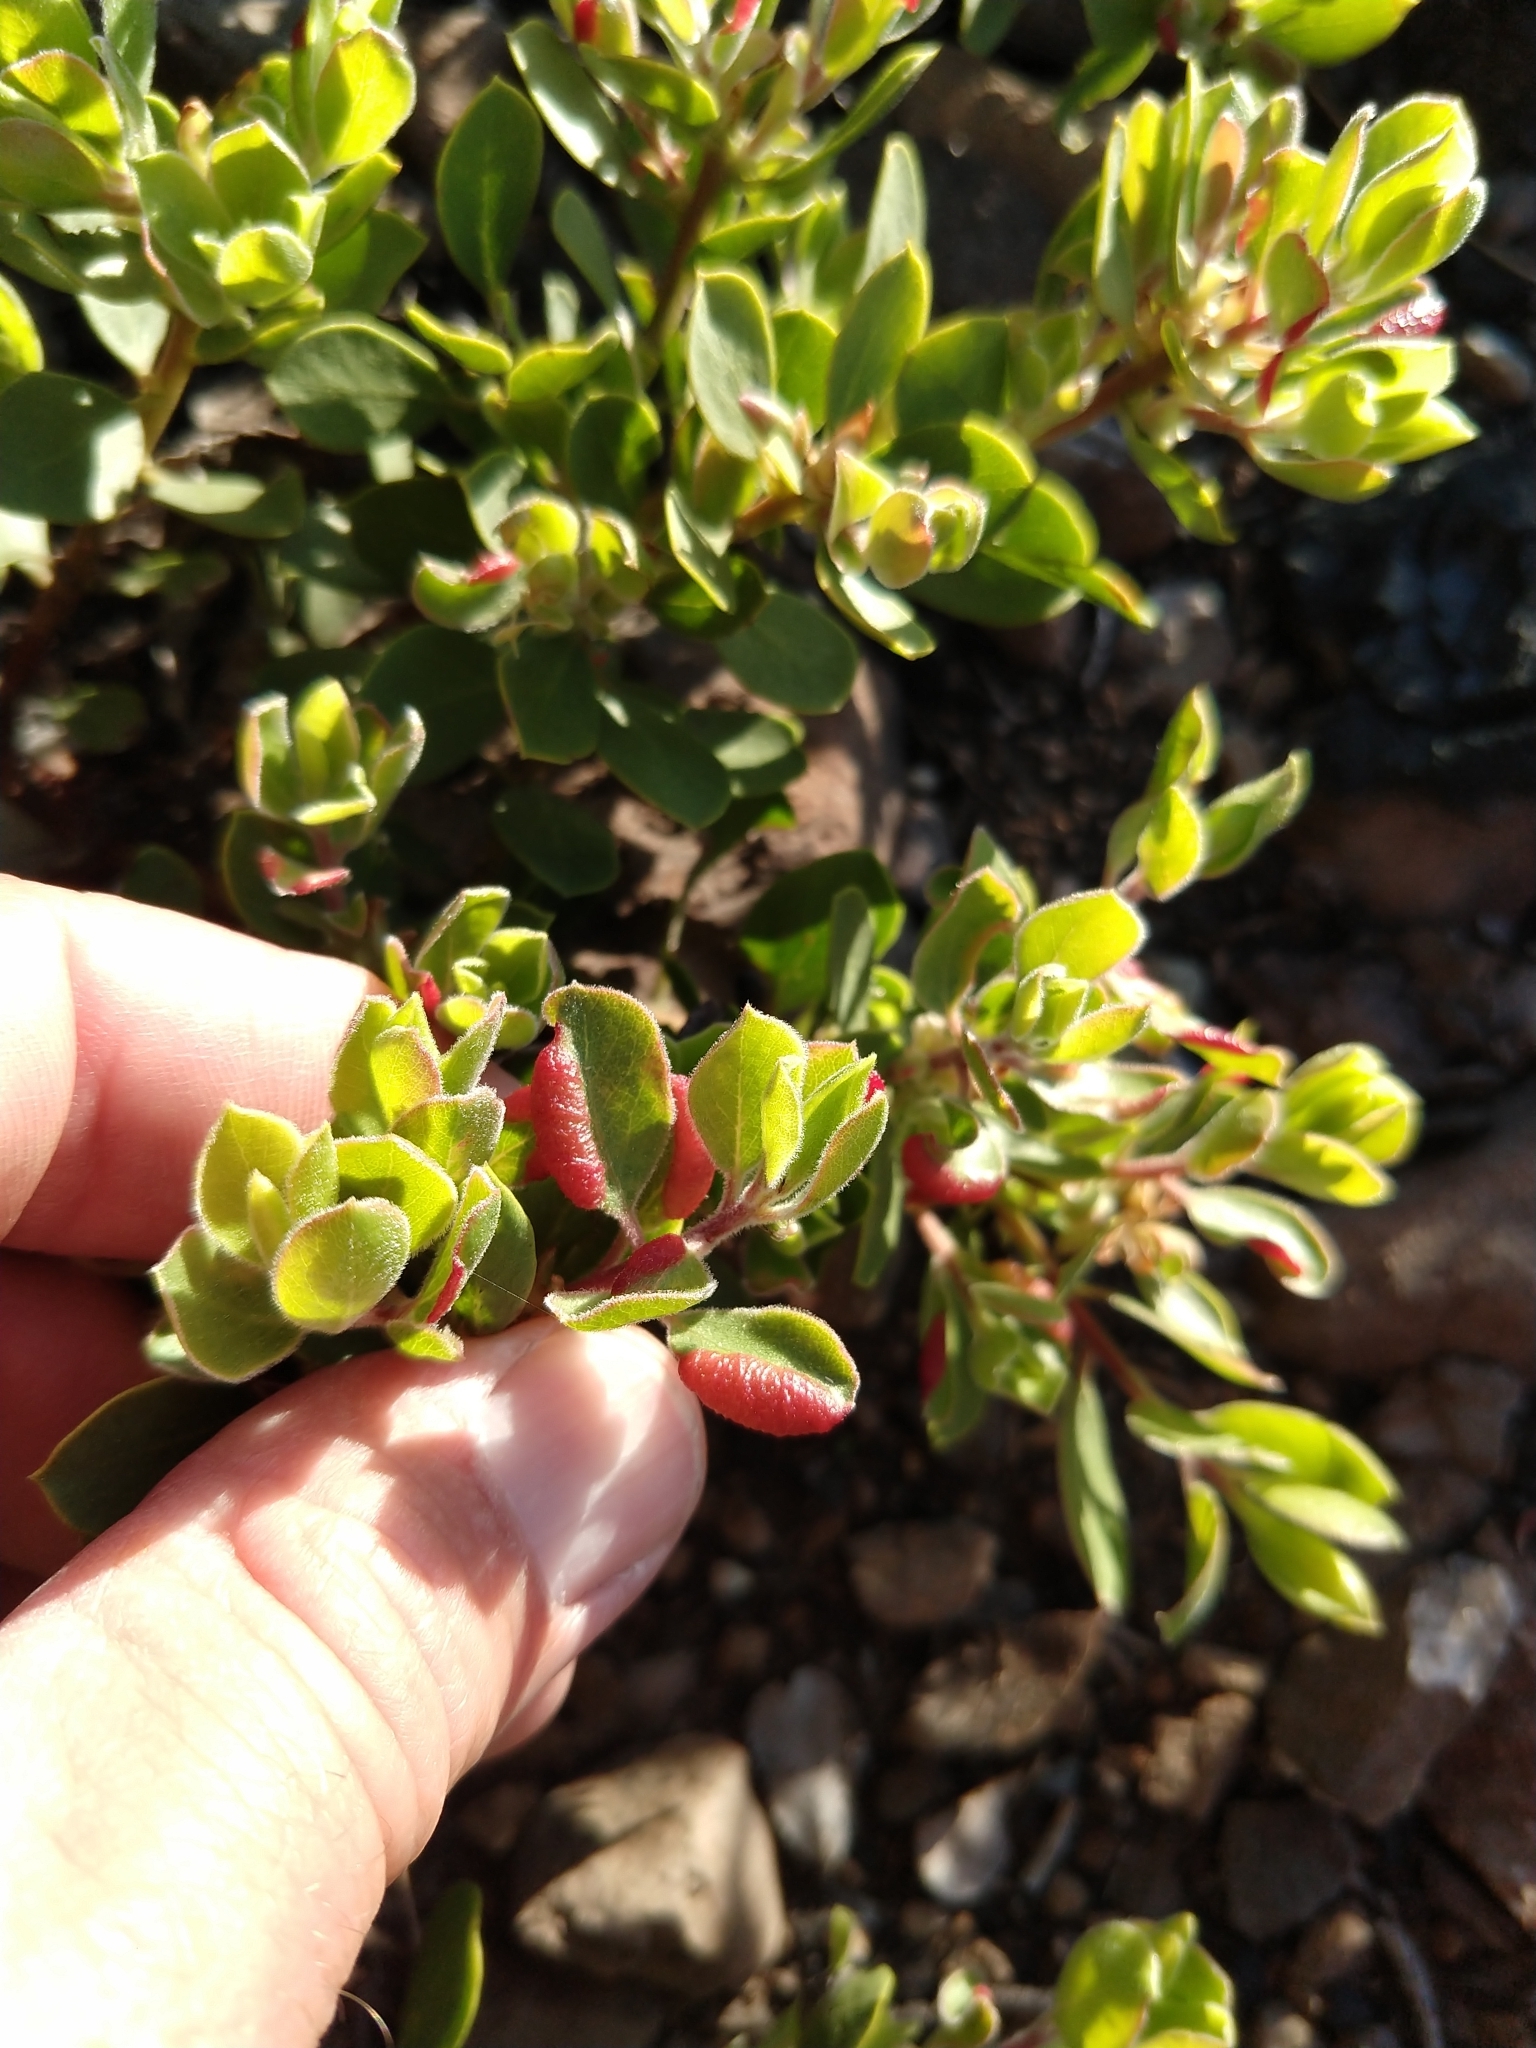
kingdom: Animalia
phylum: Arthropoda
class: Insecta
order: Hemiptera
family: Aphididae
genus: Tamalia
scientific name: Tamalia coweni
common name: Manzanita leafgall aphid
